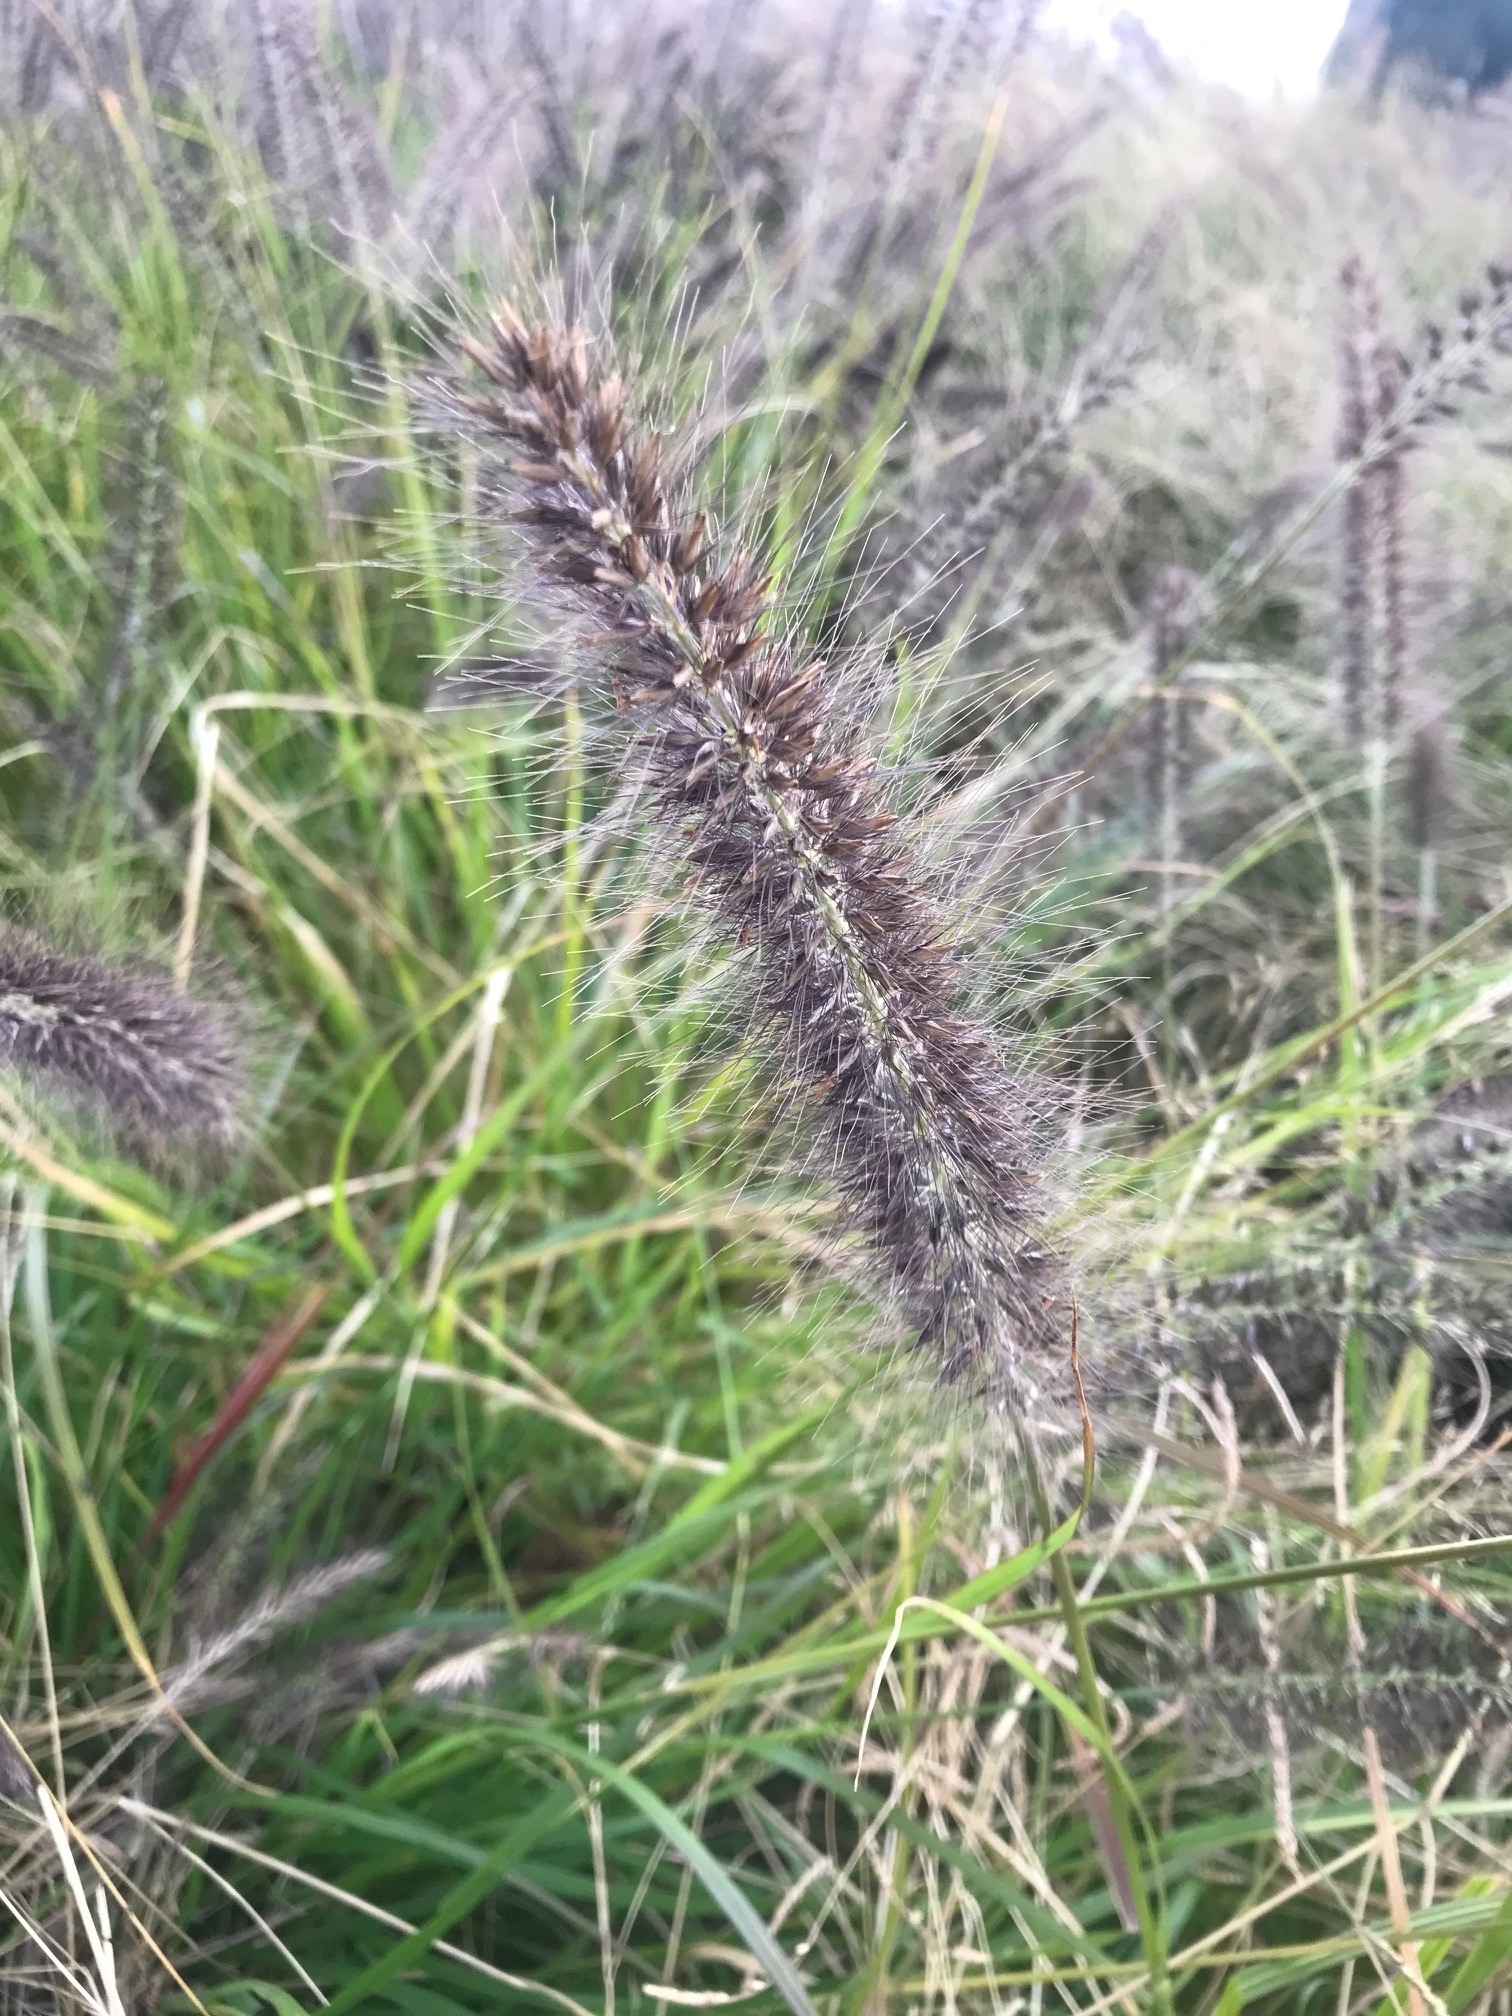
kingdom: Plantae
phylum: Tracheophyta
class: Liliopsida
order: Poales
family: Poaceae
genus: Cenchrus
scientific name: Cenchrus alopecuroides
